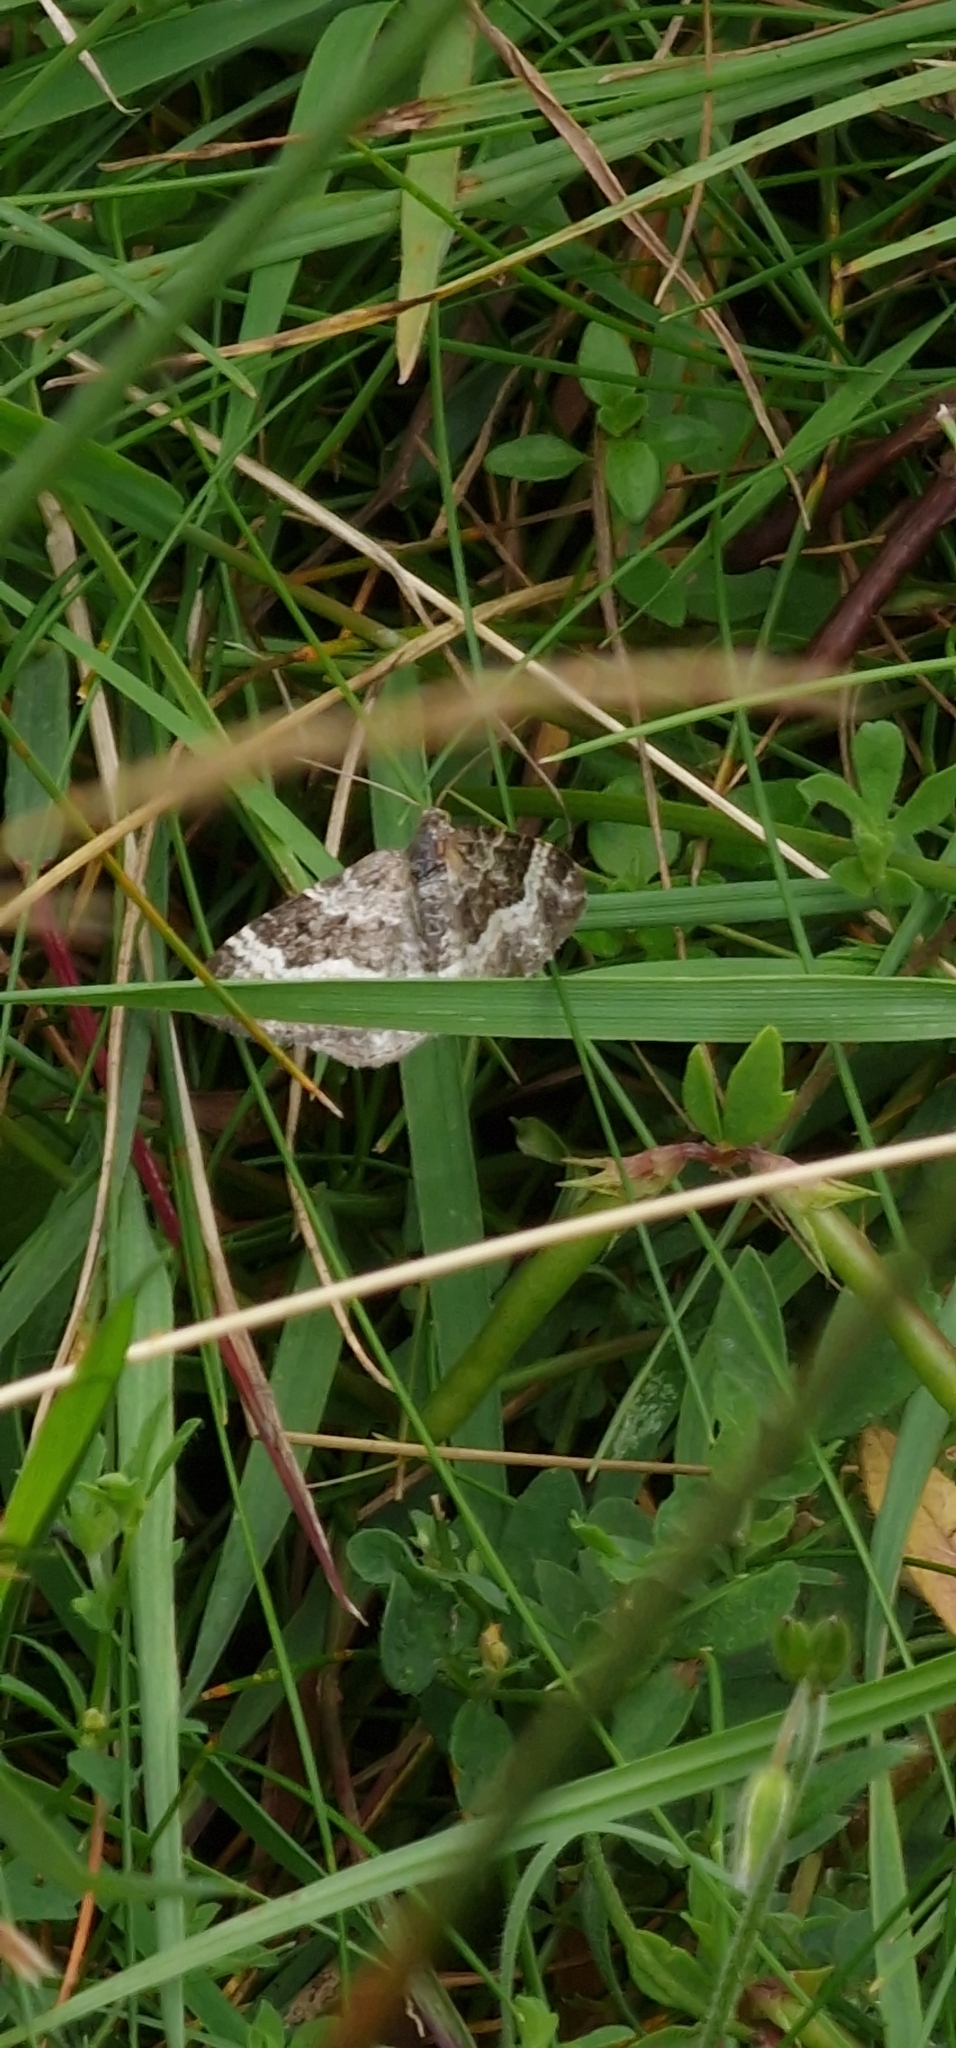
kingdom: Animalia
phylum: Arthropoda
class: Insecta
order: Lepidoptera
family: Geometridae
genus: Epirrhoe
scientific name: Epirrhoe alternata
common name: Common carpet
